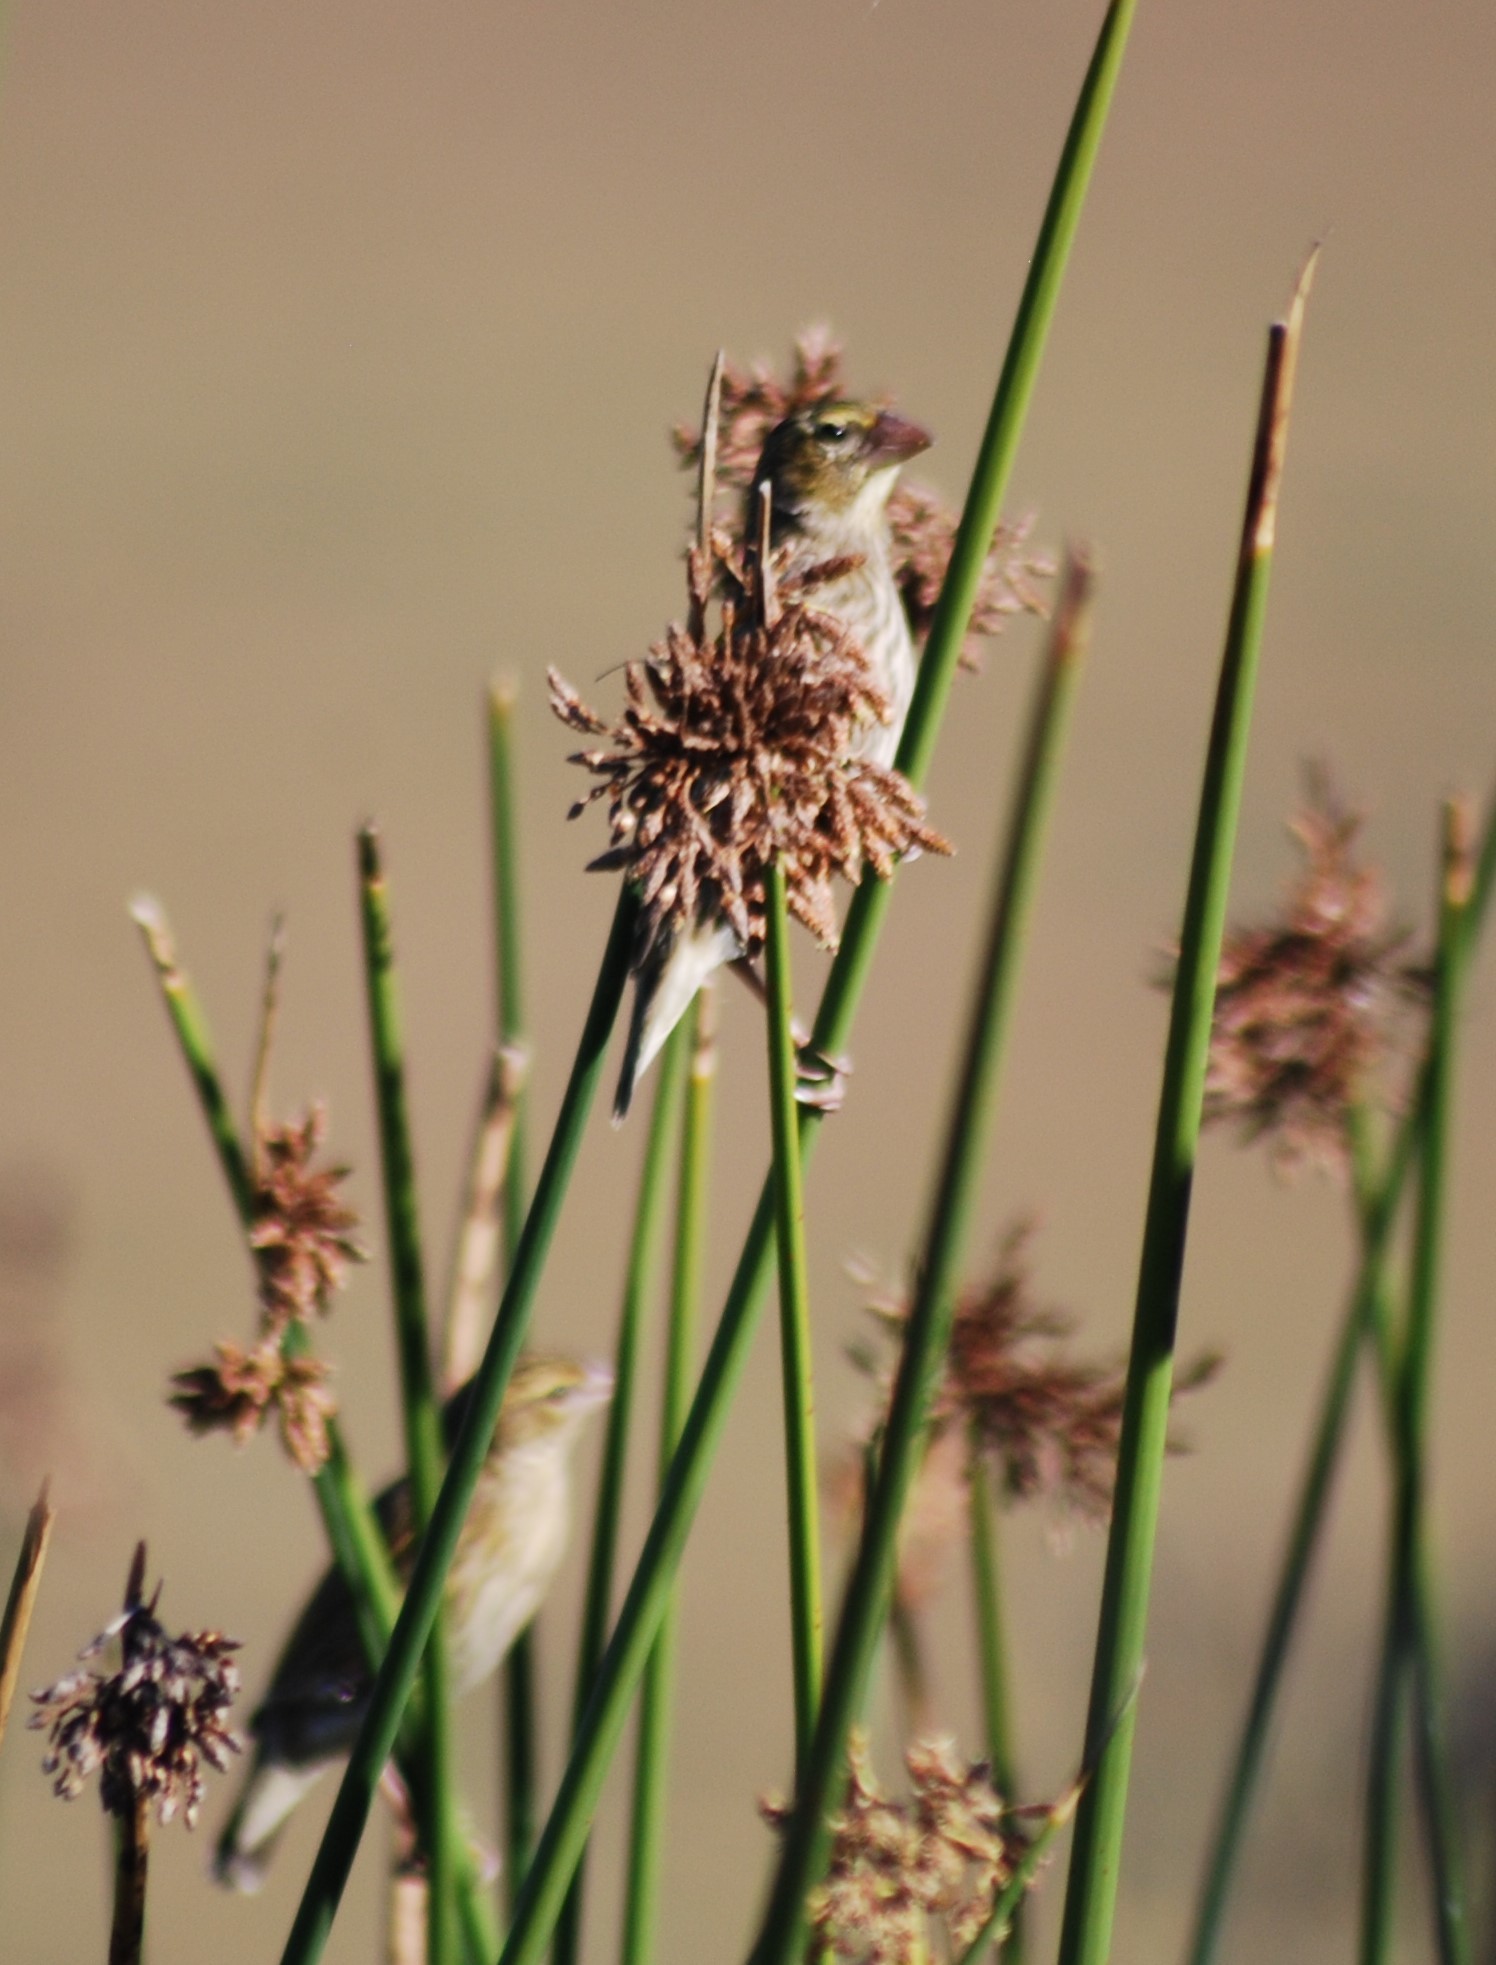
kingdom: Animalia
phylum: Chordata
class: Aves
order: Passeriformes
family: Ploceidae
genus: Euplectes
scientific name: Euplectes orix
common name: Southern red bishop
